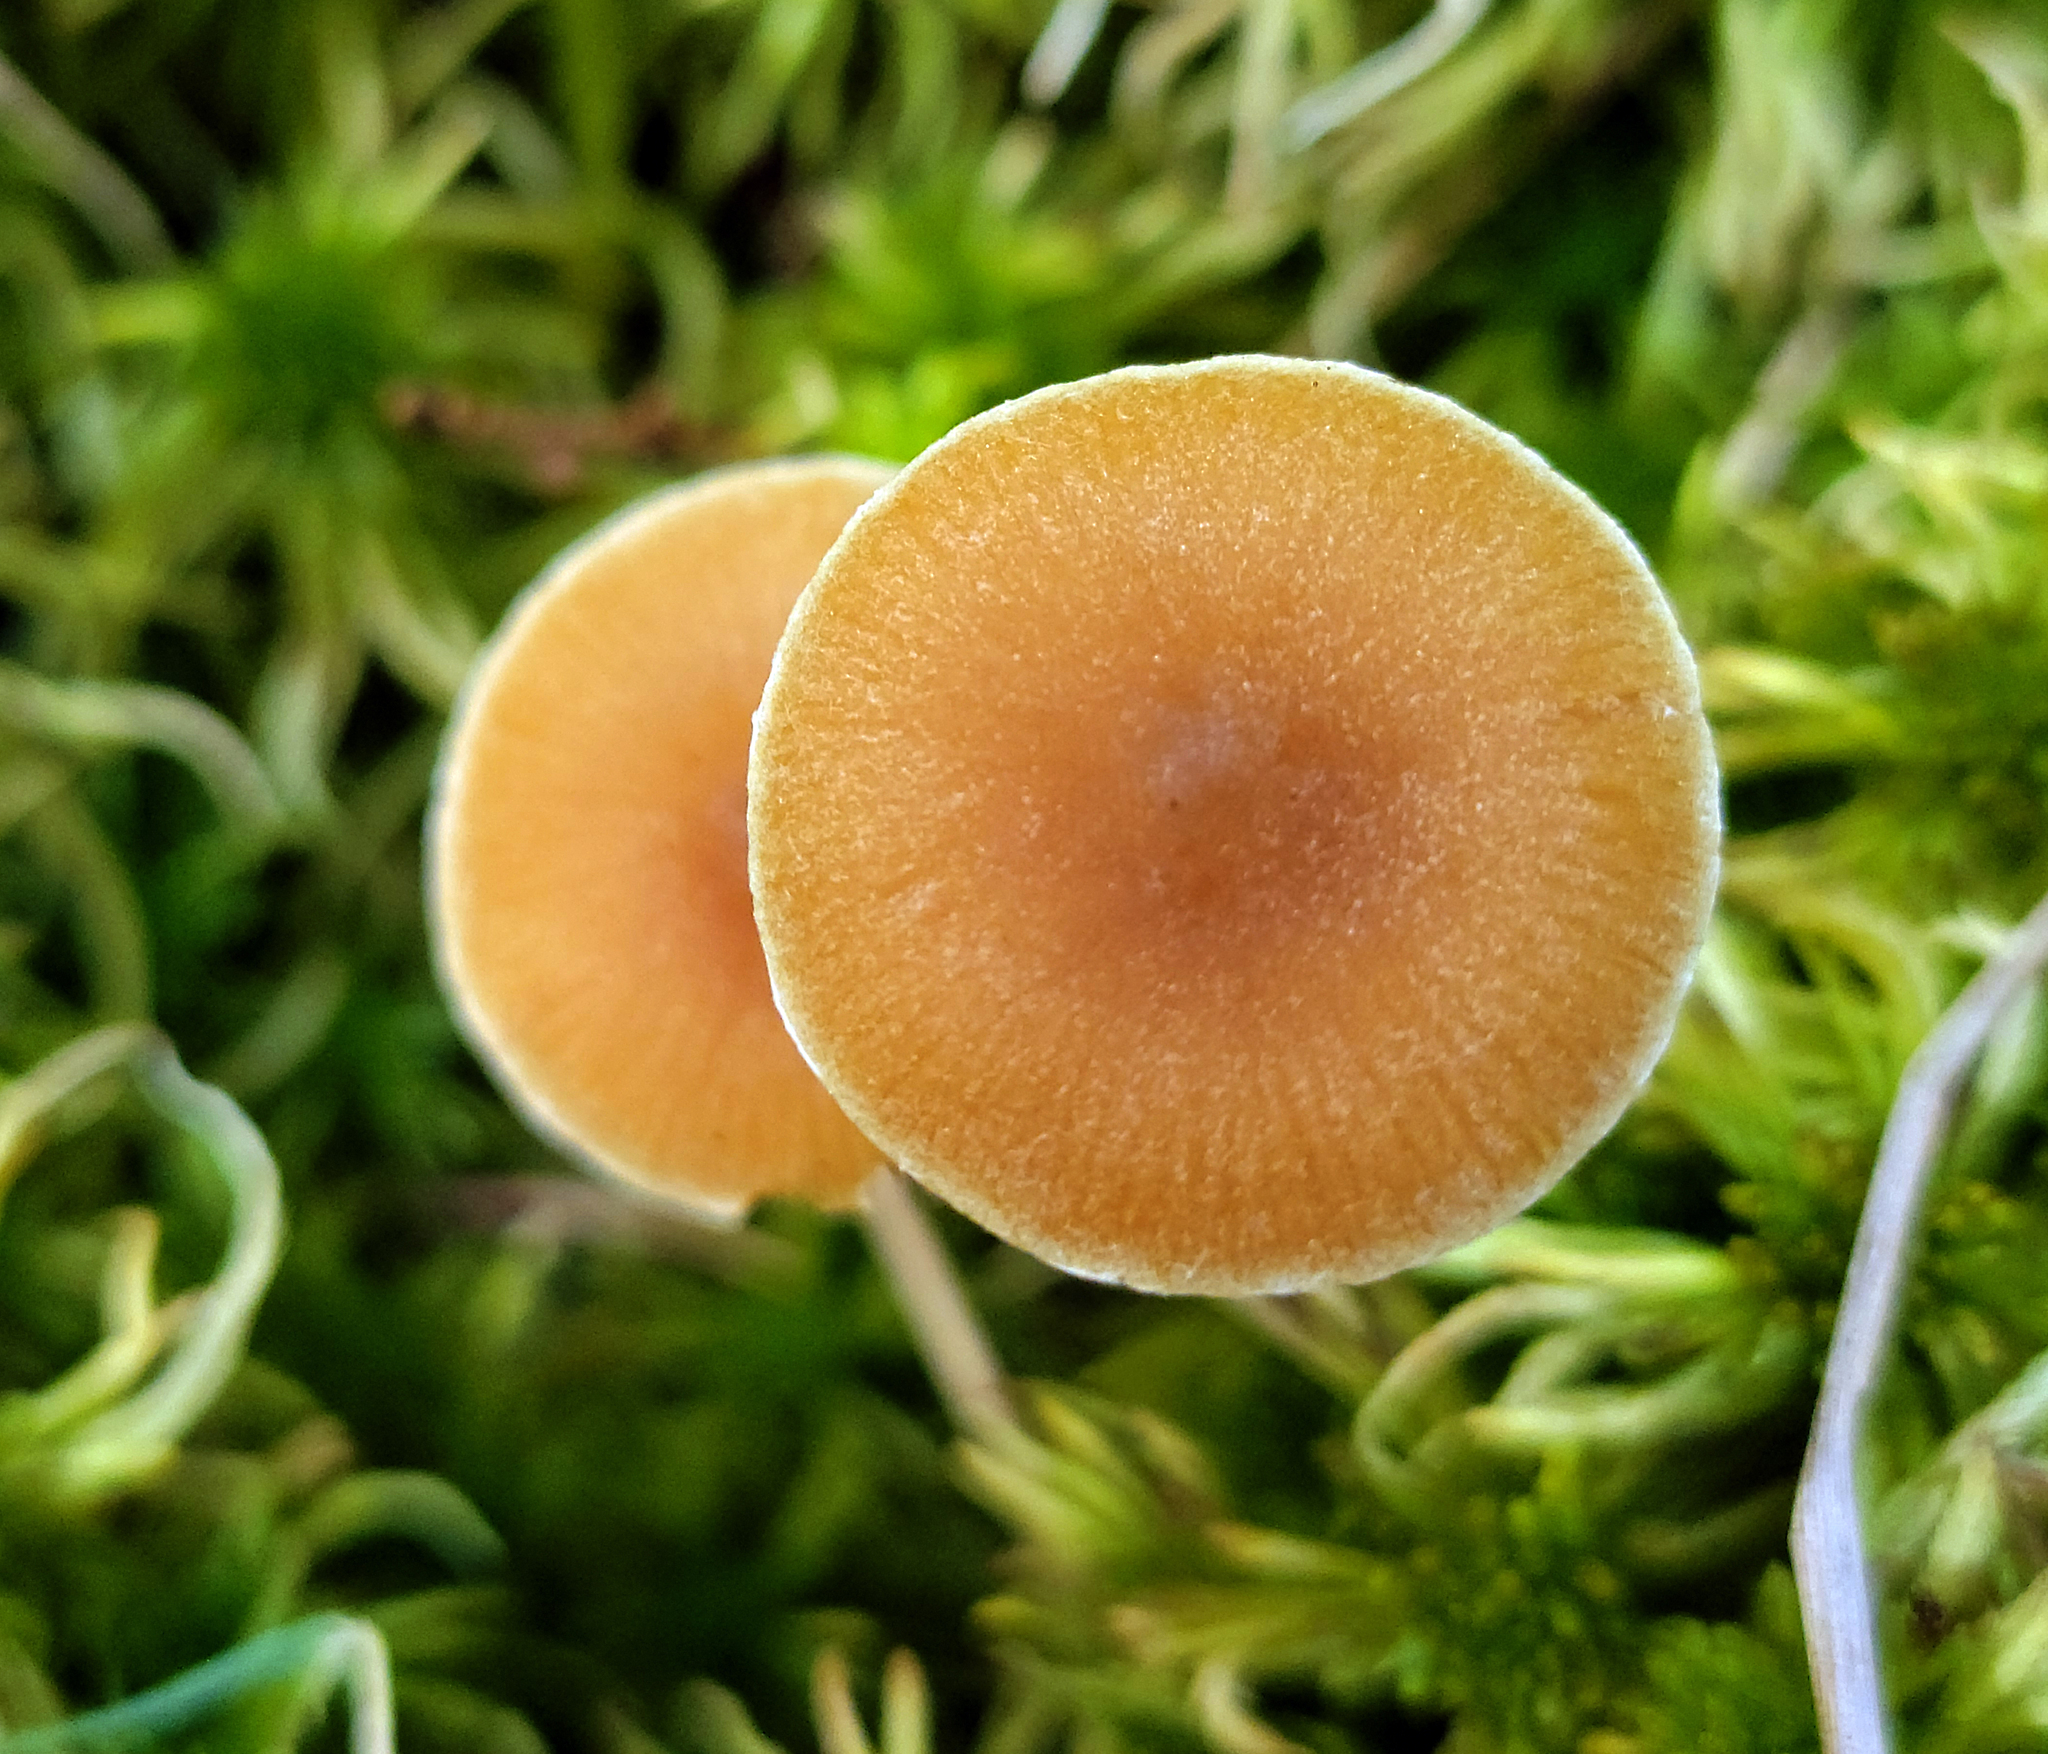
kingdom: Fungi
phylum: Basidiomycota
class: Agaricomycetes
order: Agaricales
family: Hymenogastraceae
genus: Galerina
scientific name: Galerina paludosa
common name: Bog bell
